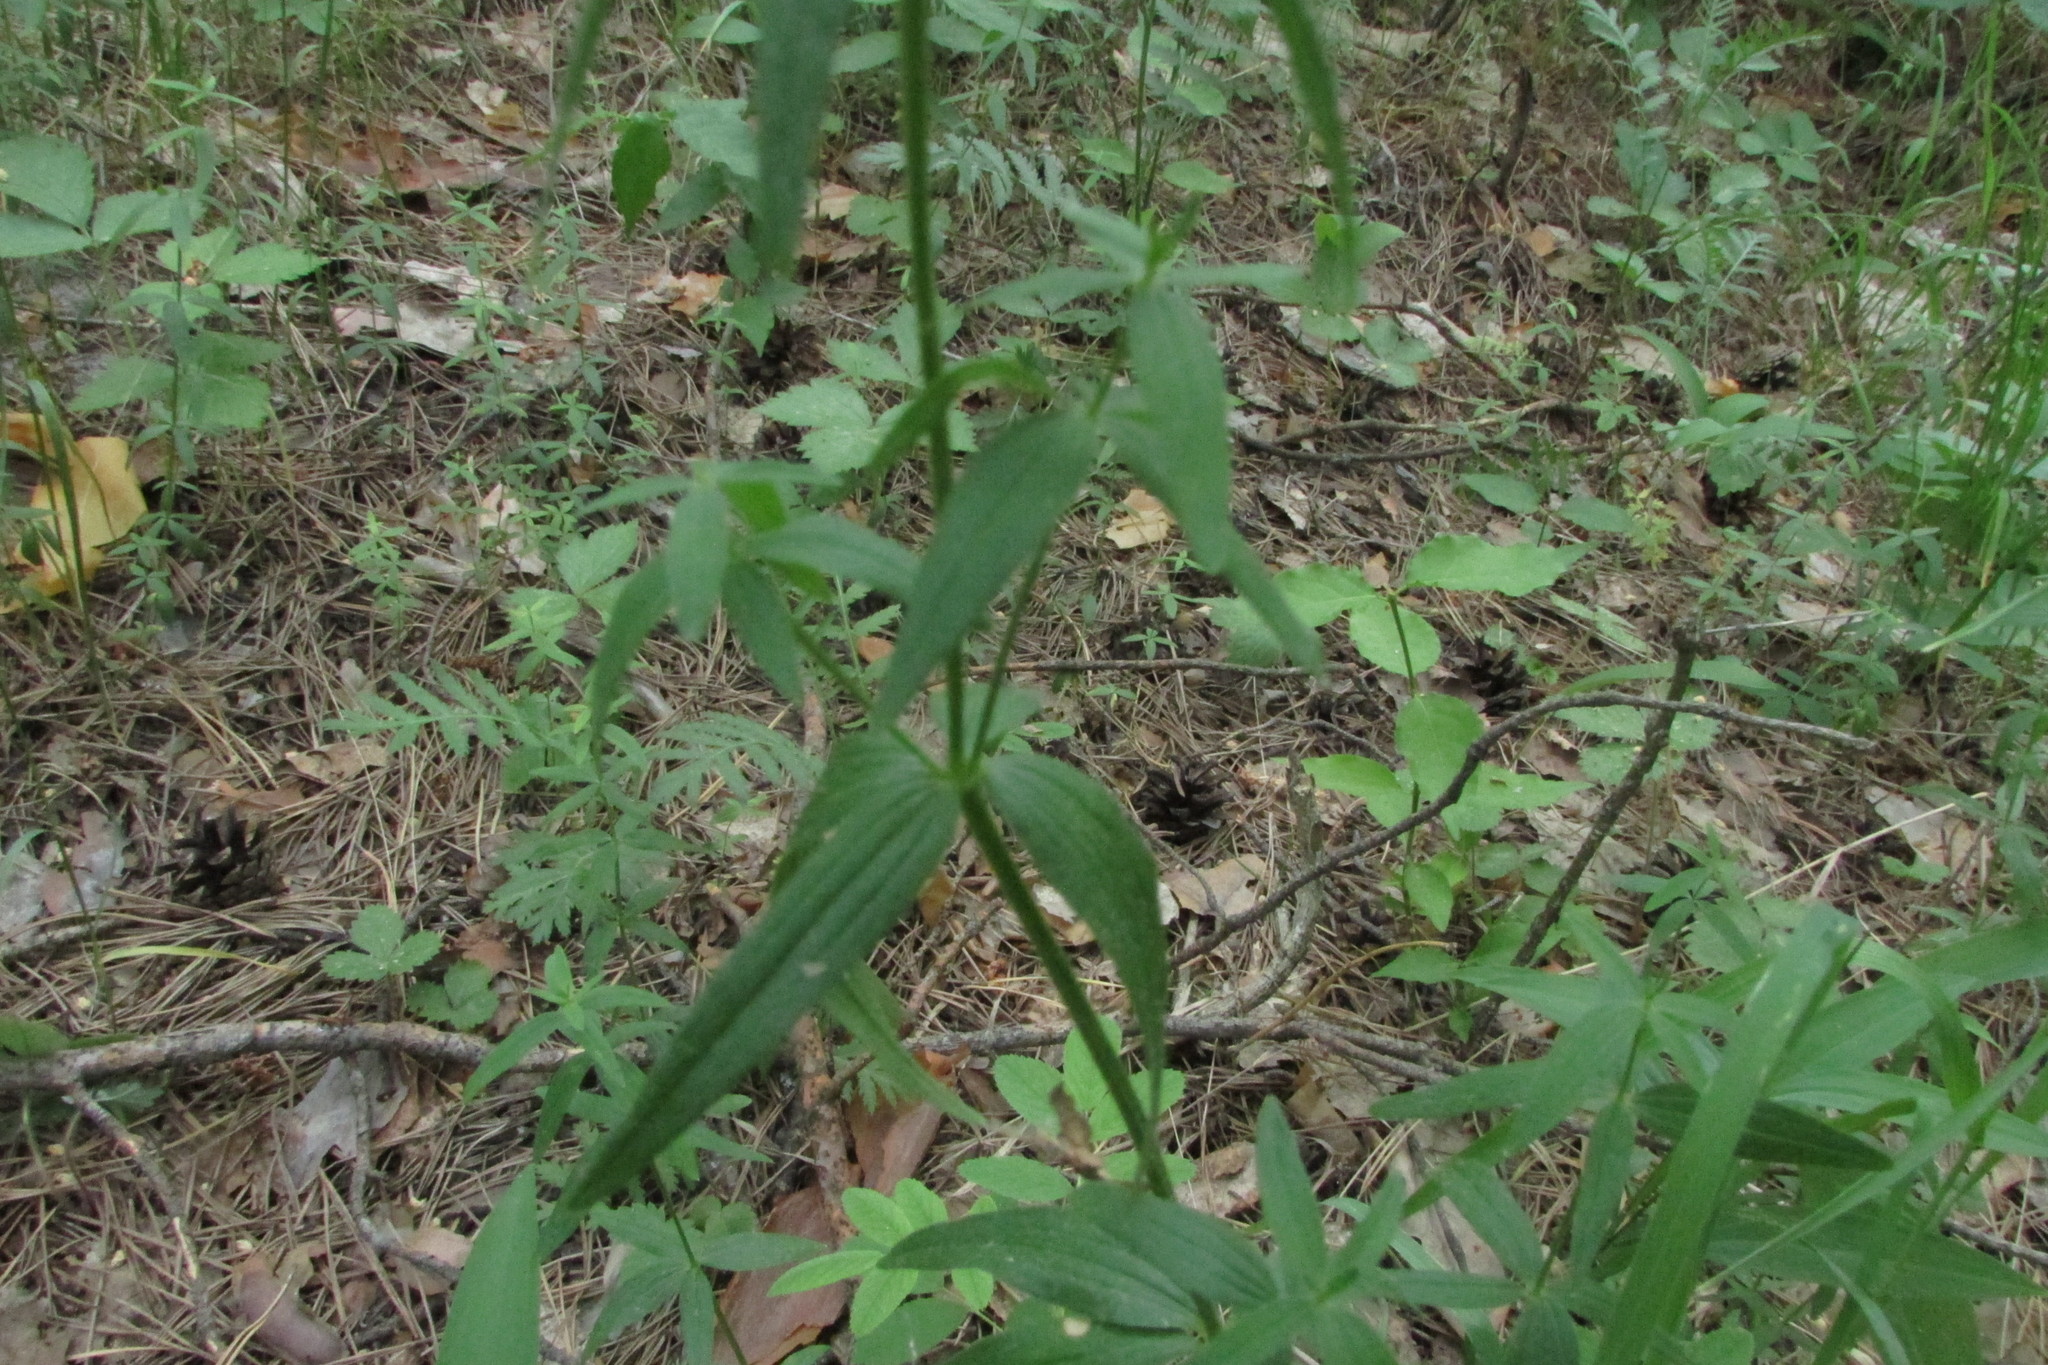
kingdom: Plantae
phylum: Tracheophyta
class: Magnoliopsida
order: Gentianales
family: Rubiaceae
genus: Galium
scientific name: Galium boreale
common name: Northern bedstraw
